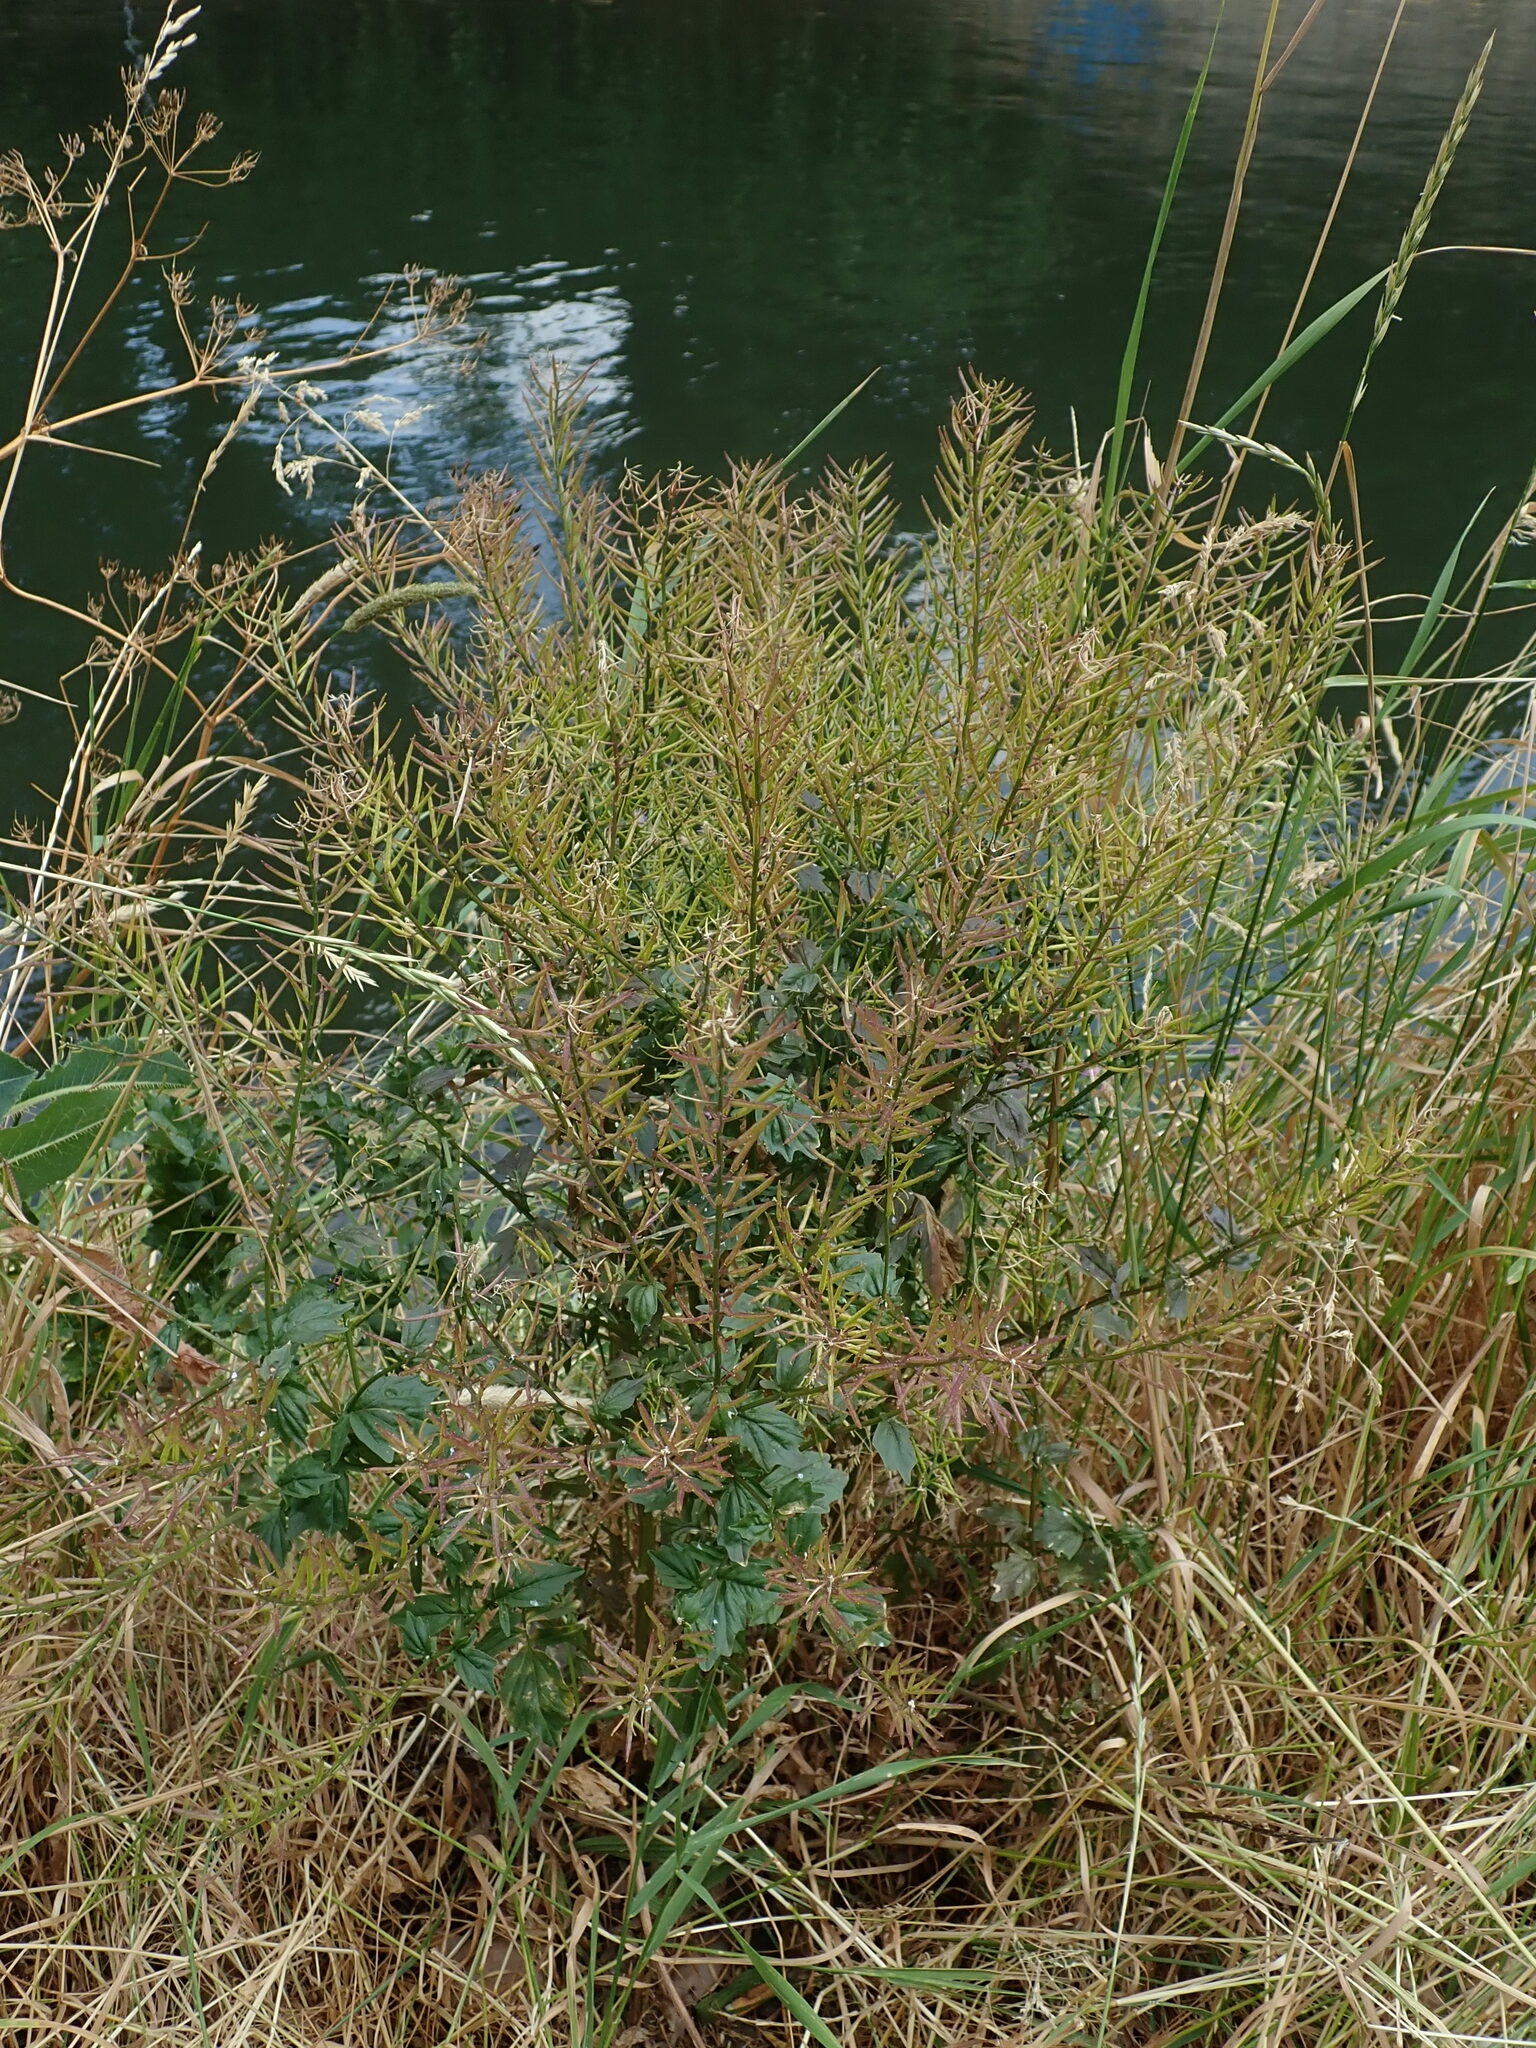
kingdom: Plantae
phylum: Tracheophyta
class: Magnoliopsida
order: Brassicales
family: Brassicaceae
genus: Barbarea
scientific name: Barbarea vulgaris
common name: Cressy-greens
